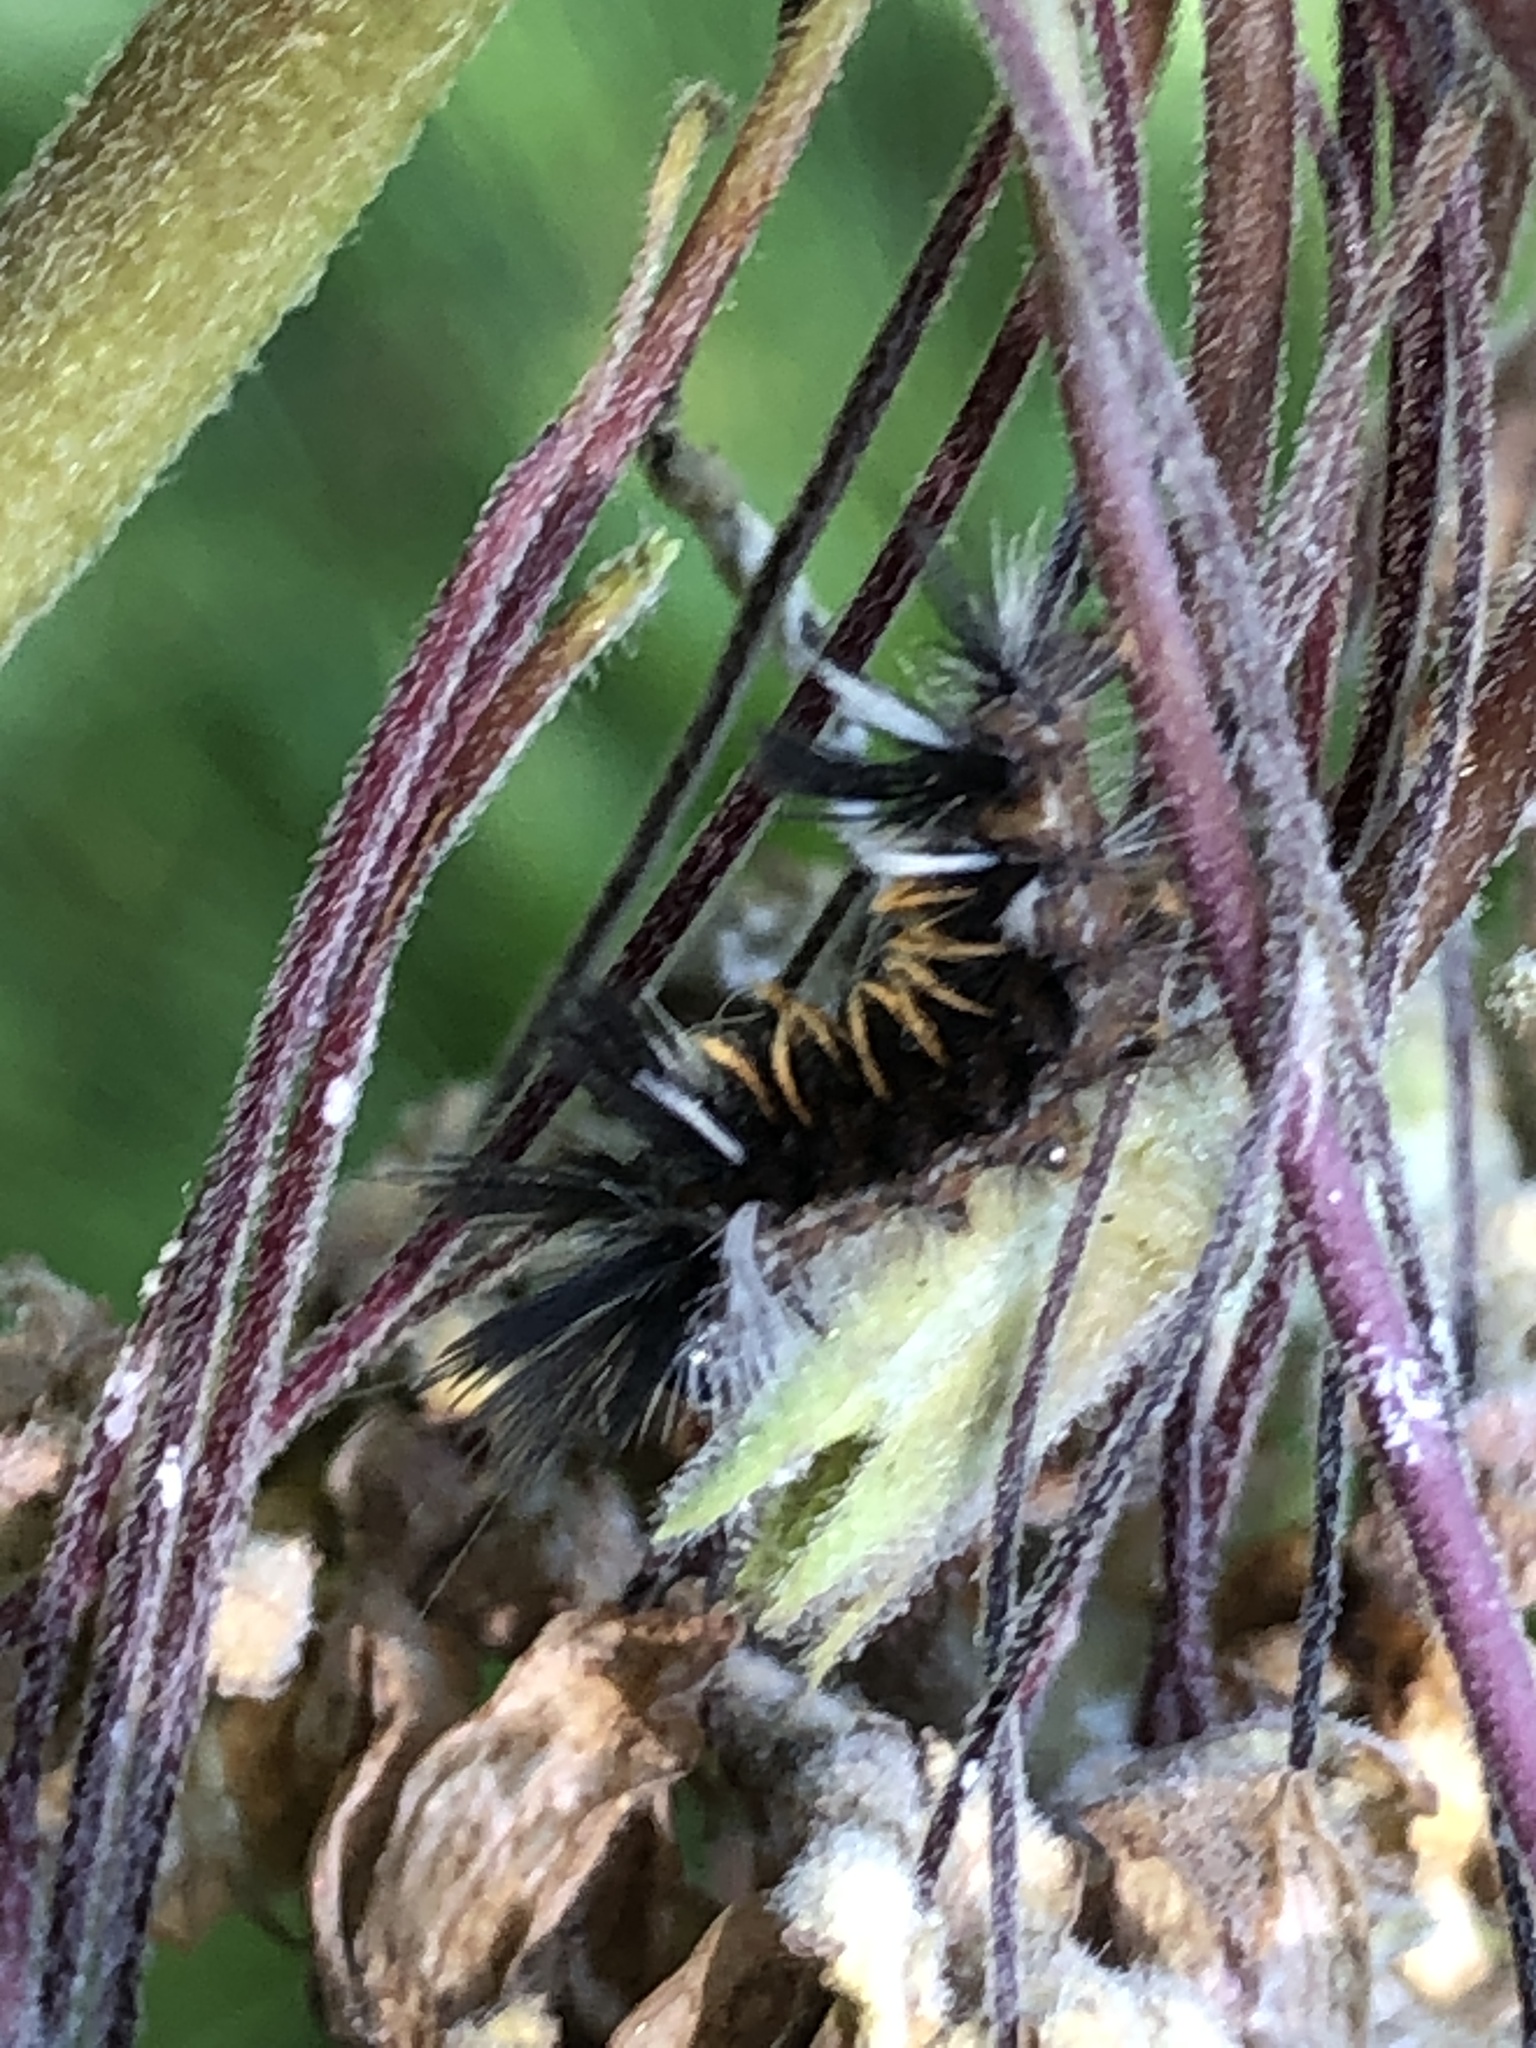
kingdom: Animalia
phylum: Arthropoda
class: Insecta
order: Lepidoptera
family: Erebidae
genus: Euchaetes
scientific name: Euchaetes egle
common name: Milkweed tussock moth
